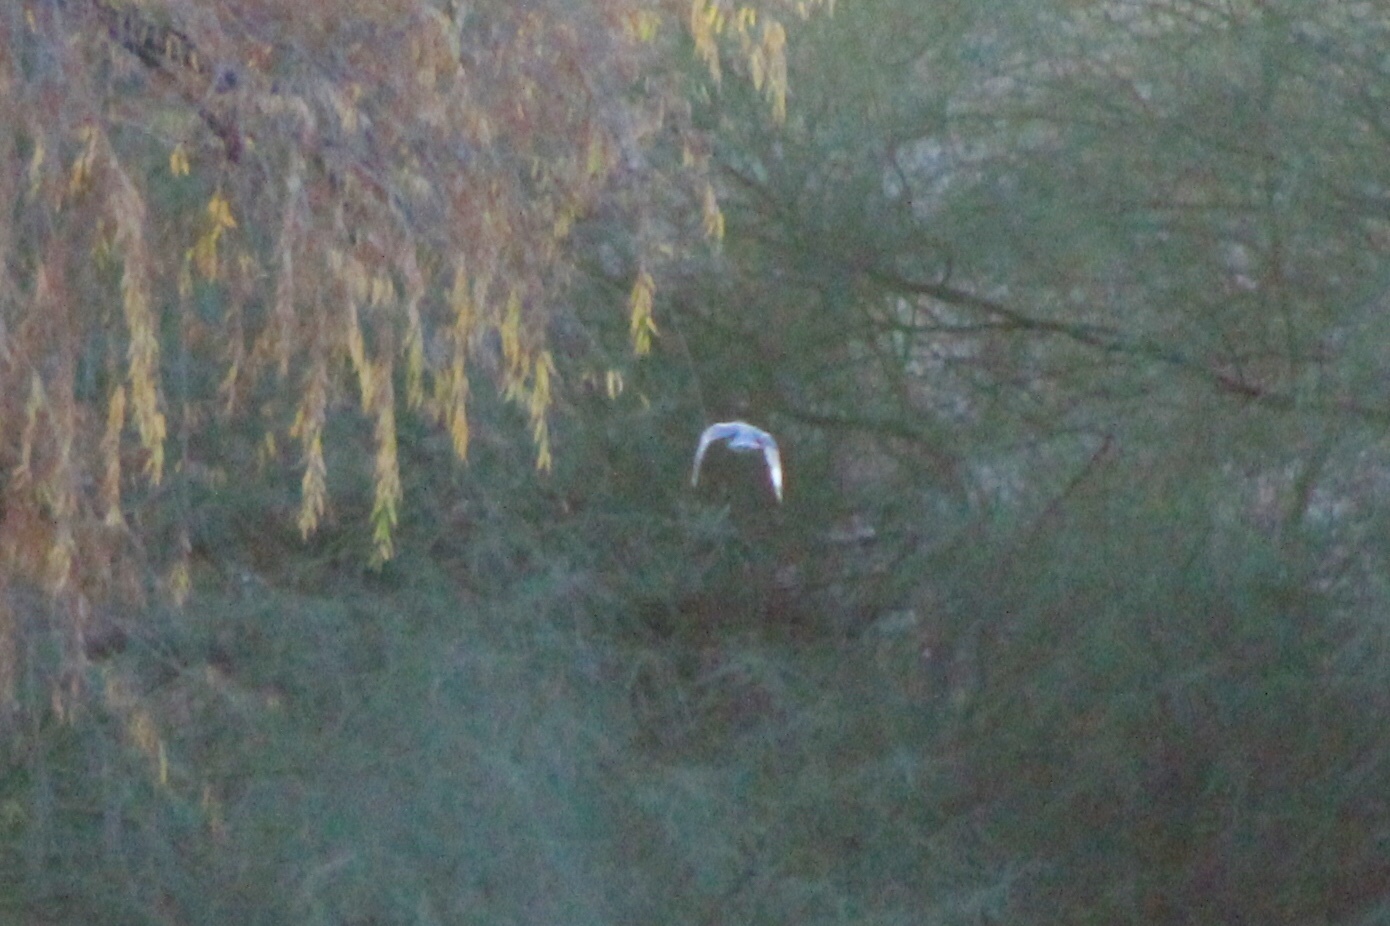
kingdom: Animalia
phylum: Chordata
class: Aves
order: Coraciiformes
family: Alcedinidae
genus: Megaceryle
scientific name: Megaceryle alcyon
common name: Belted kingfisher
